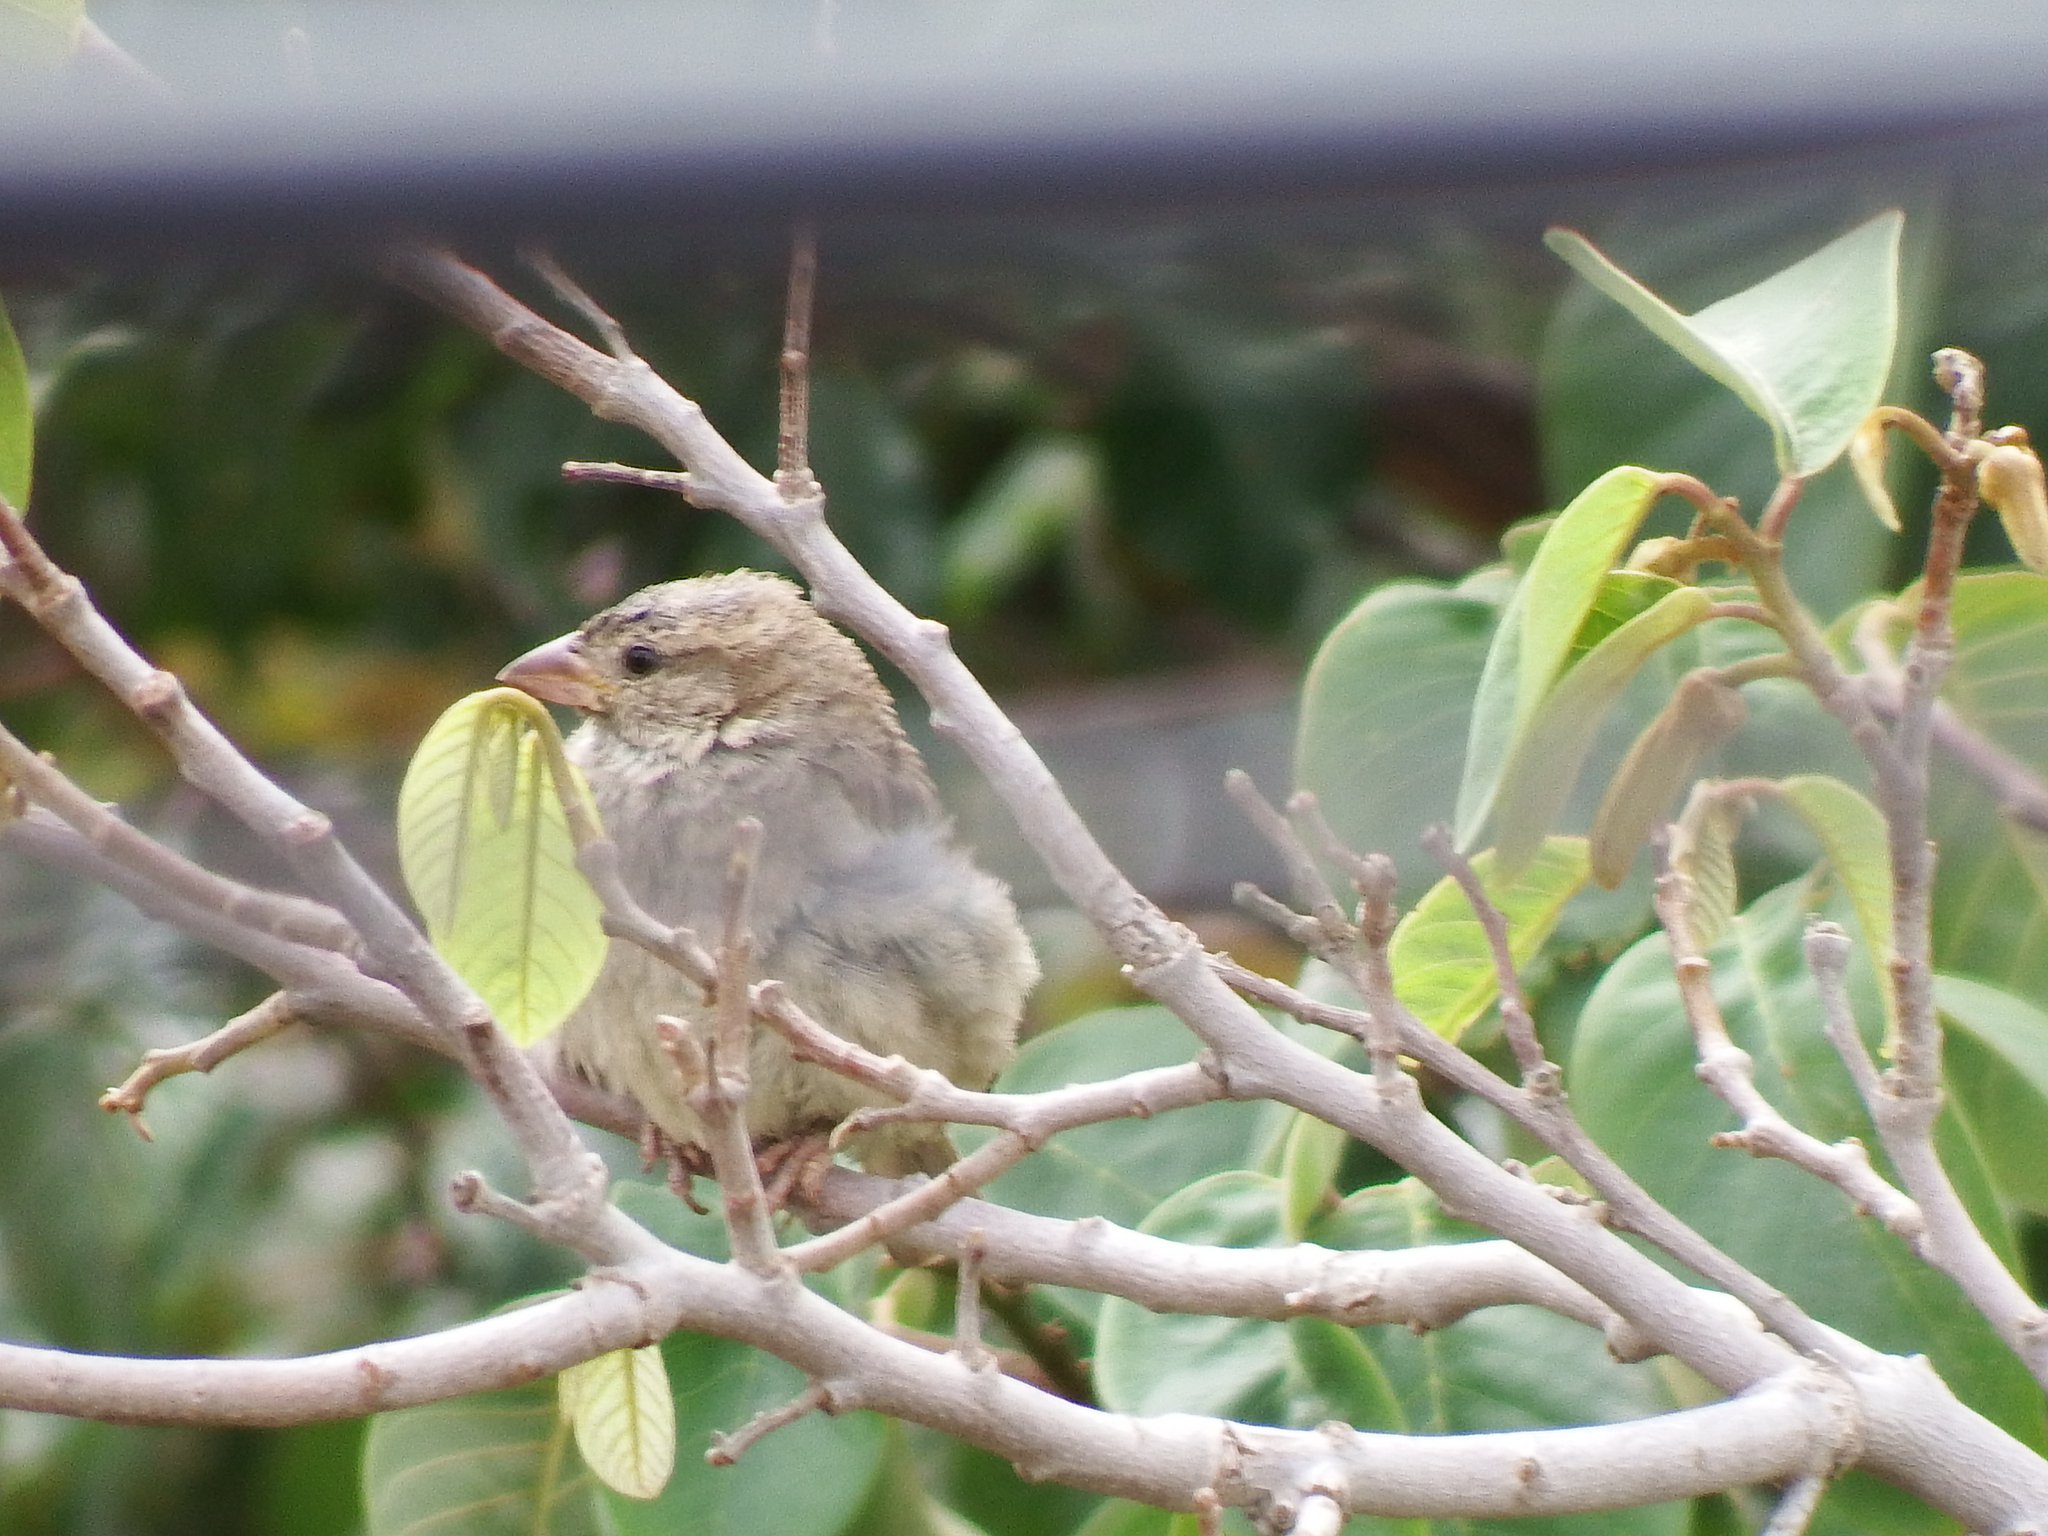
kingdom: Animalia
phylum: Chordata
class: Aves
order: Passeriformes
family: Passeridae
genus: Passer
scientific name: Passer domesticus
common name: House sparrow
